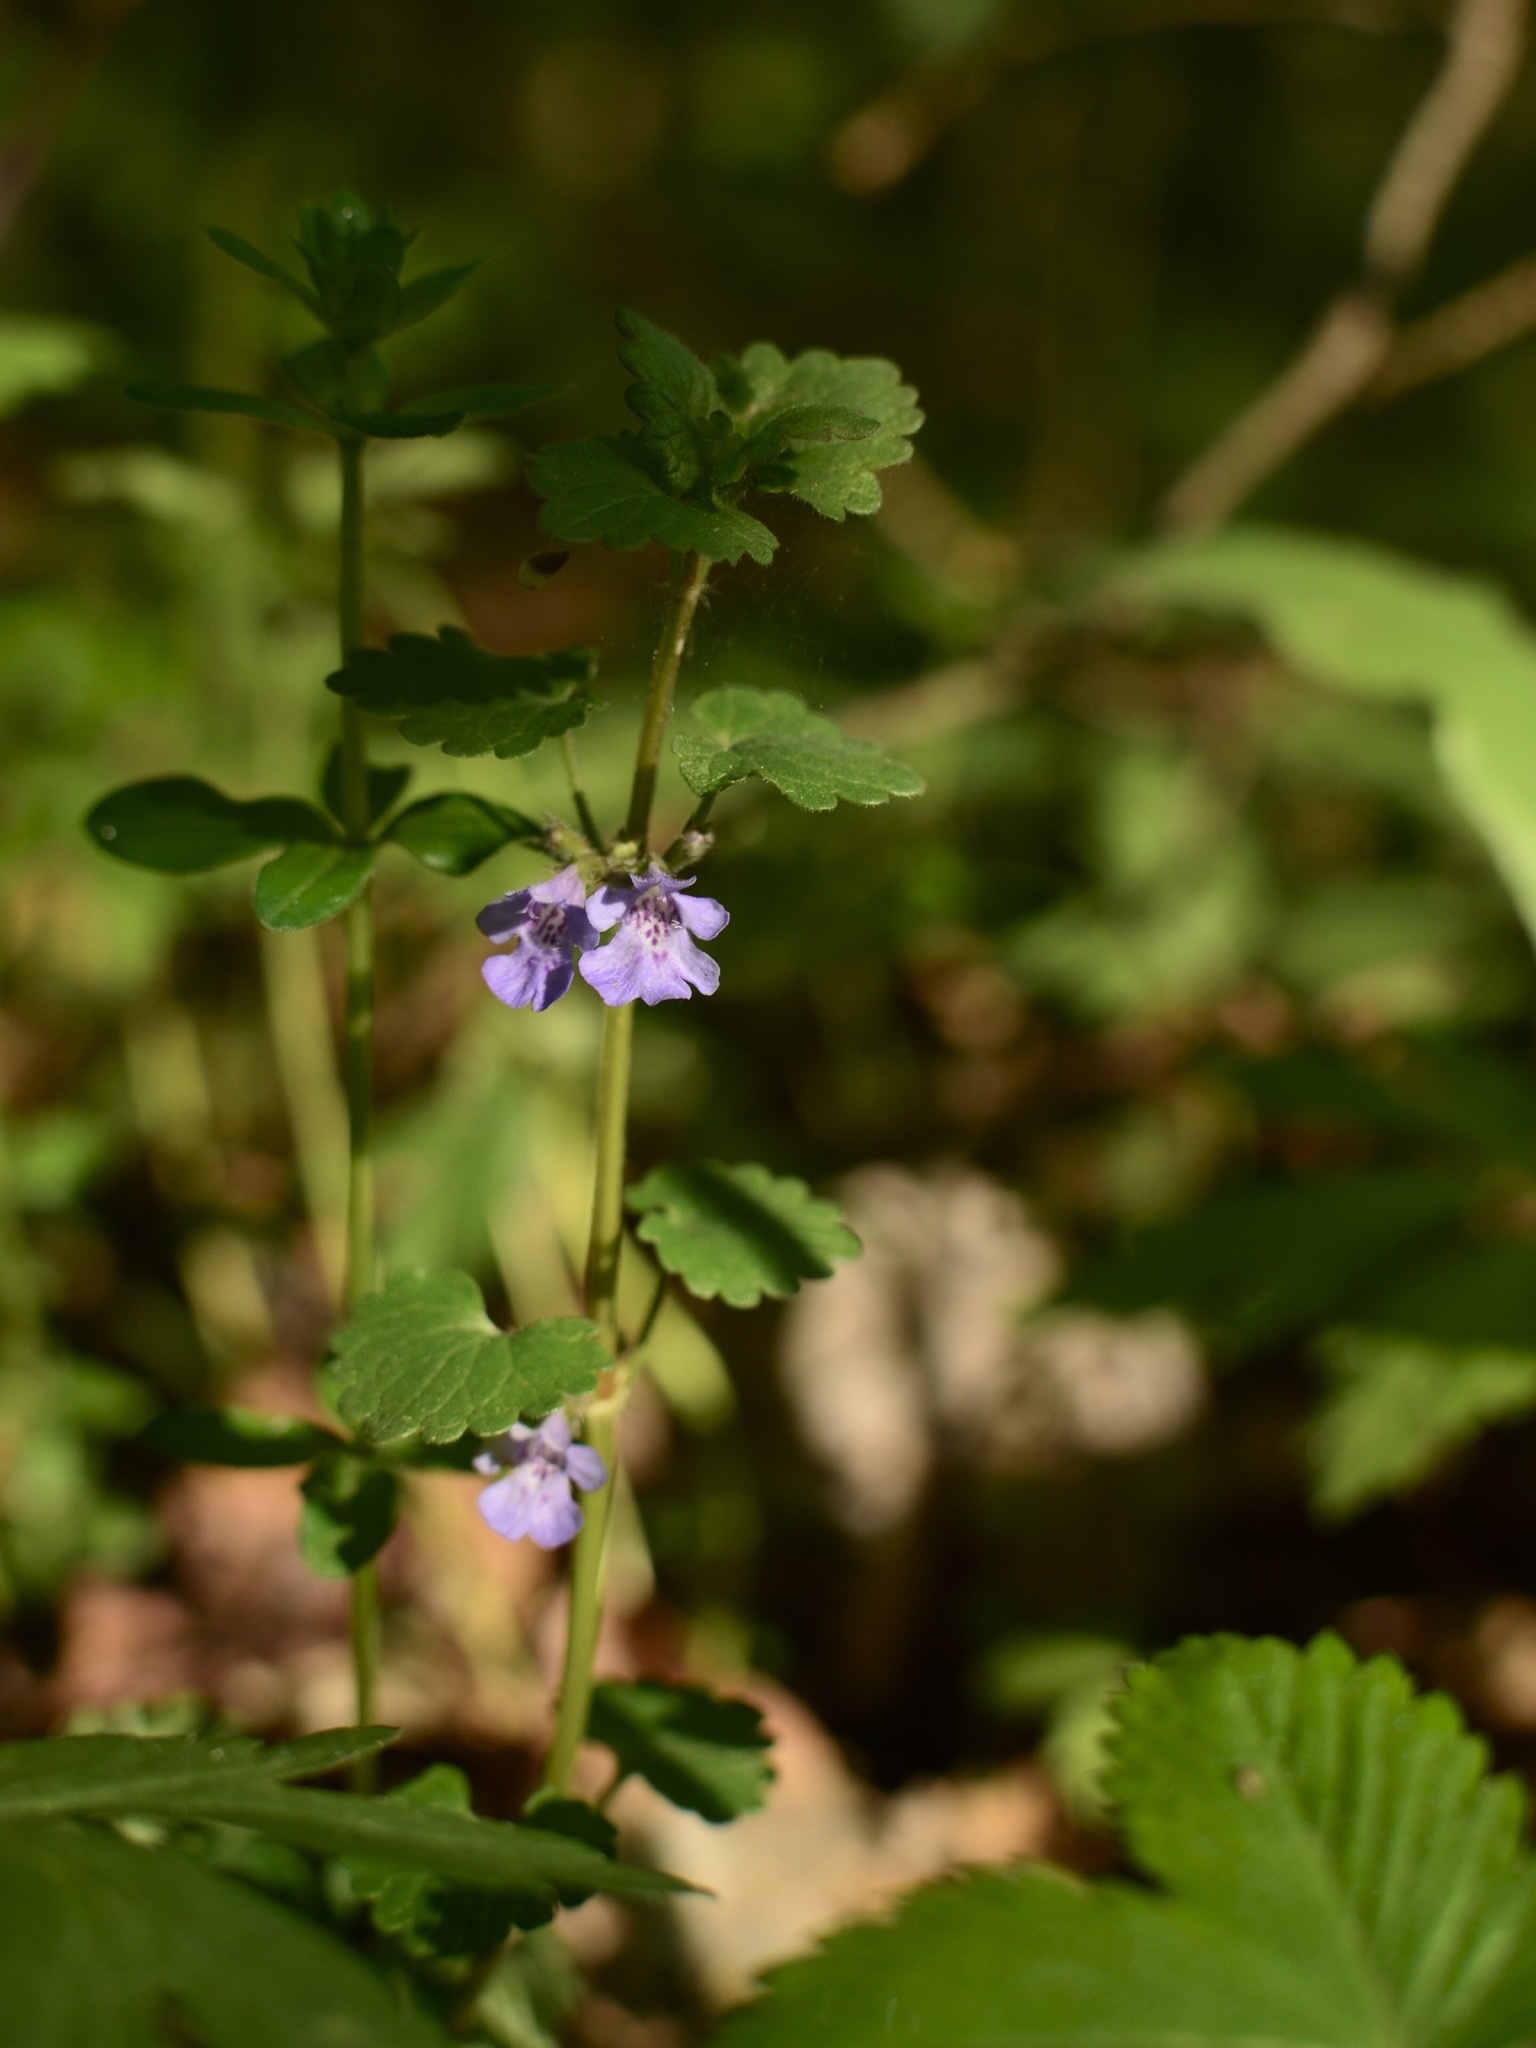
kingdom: Plantae
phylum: Tracheophyta
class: Magnoliopsida
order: Lamiales
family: Lamiaceae
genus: Glechoma
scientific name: Glechoma hederacea
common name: Ground ivy
